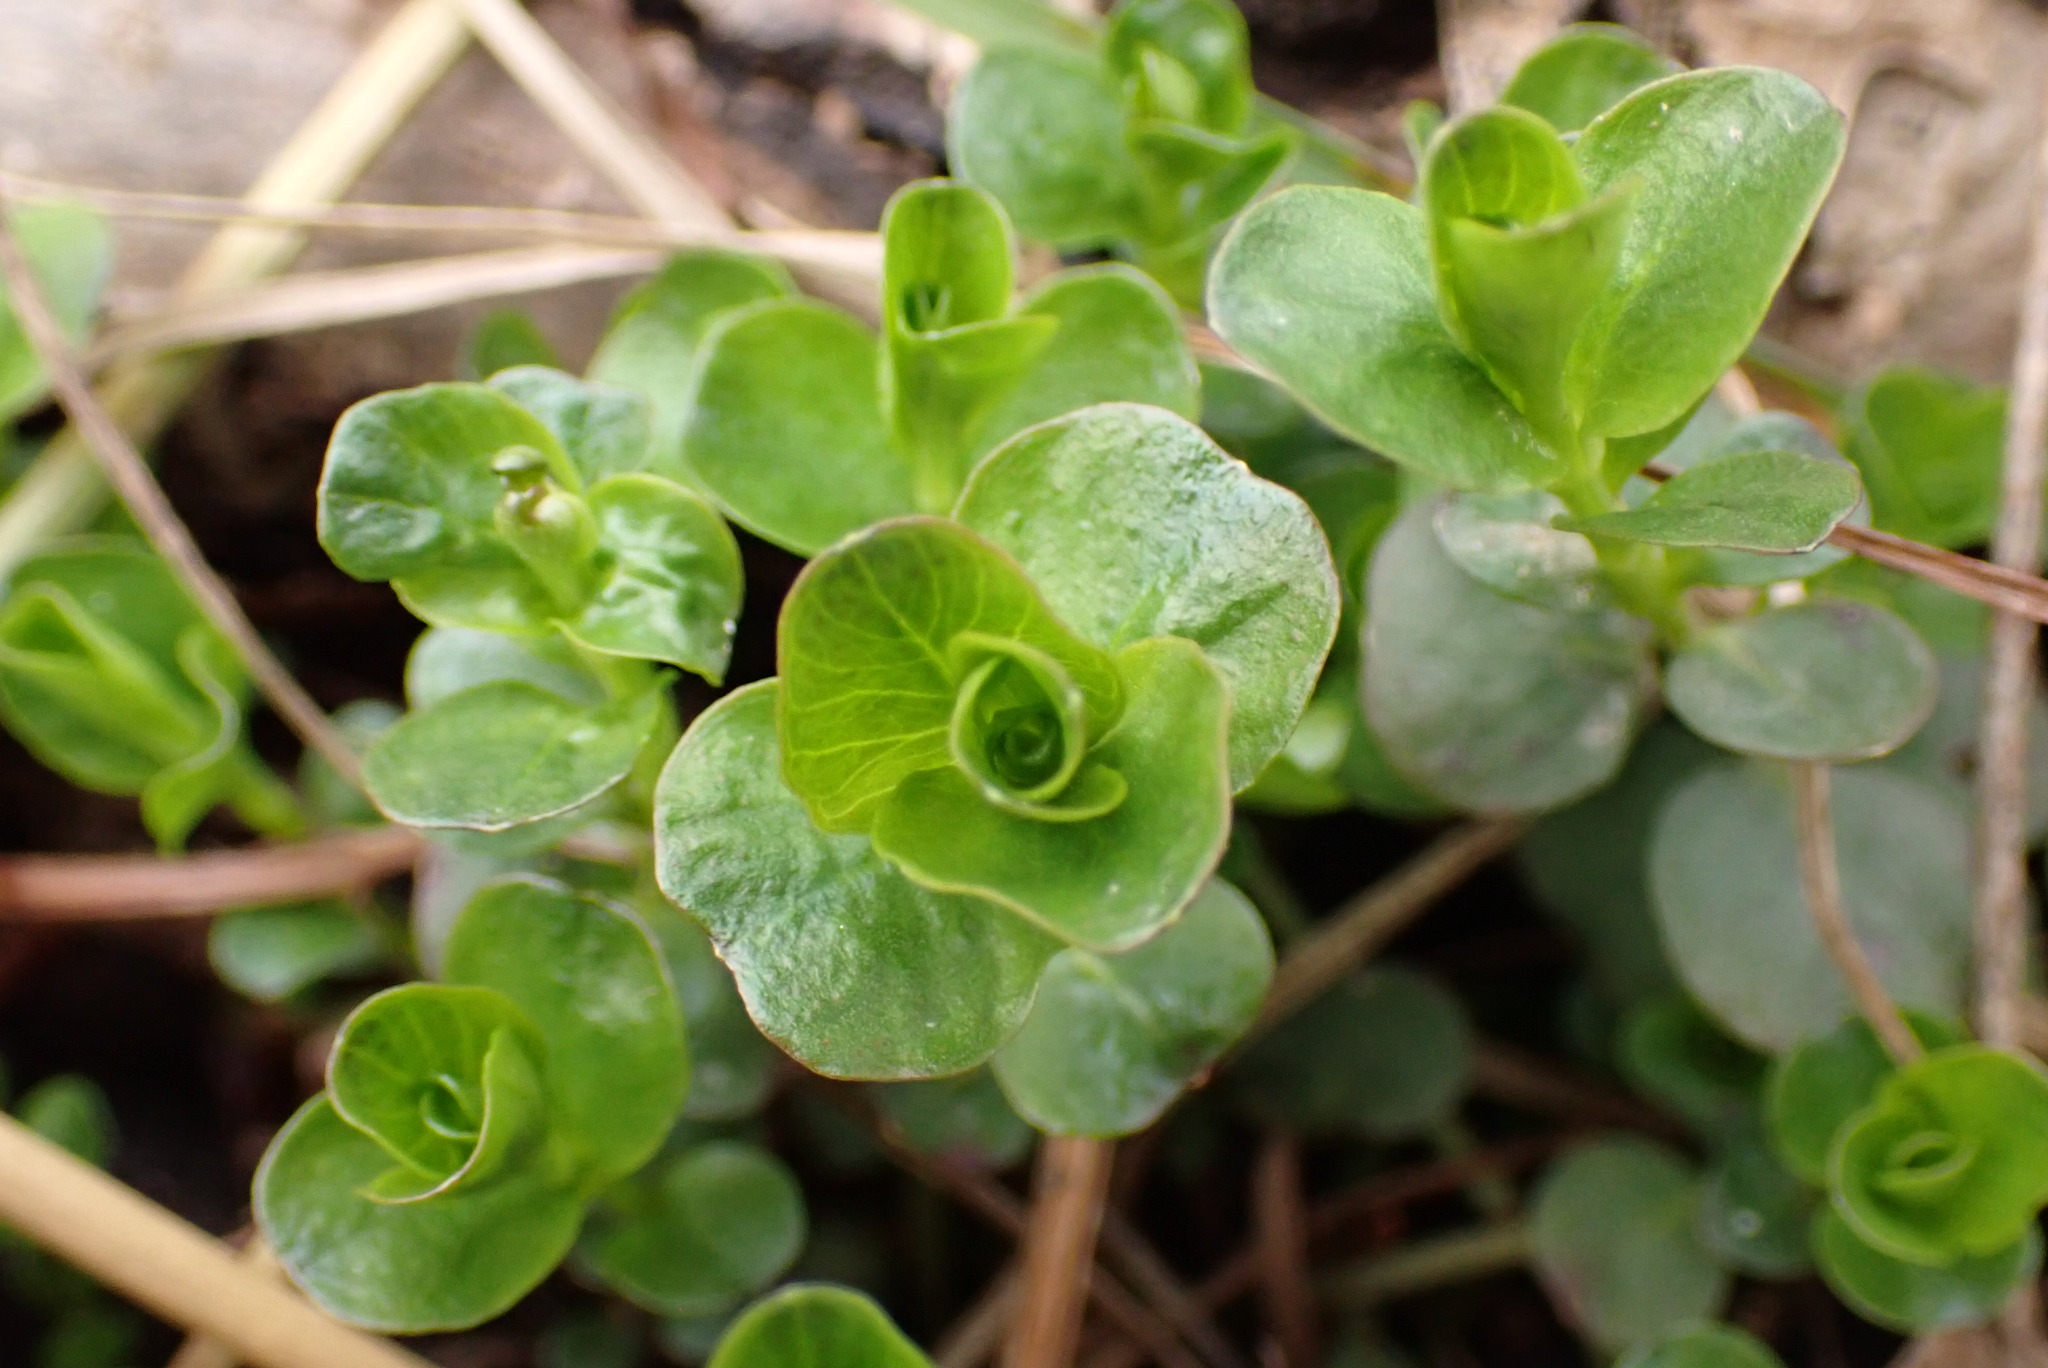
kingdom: Plantae
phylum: Tracheophyta
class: Magnoliopsida
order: Ericales
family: Primulaceae
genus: Lysimachia
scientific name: Lysimachia nummularia
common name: Moneywort
